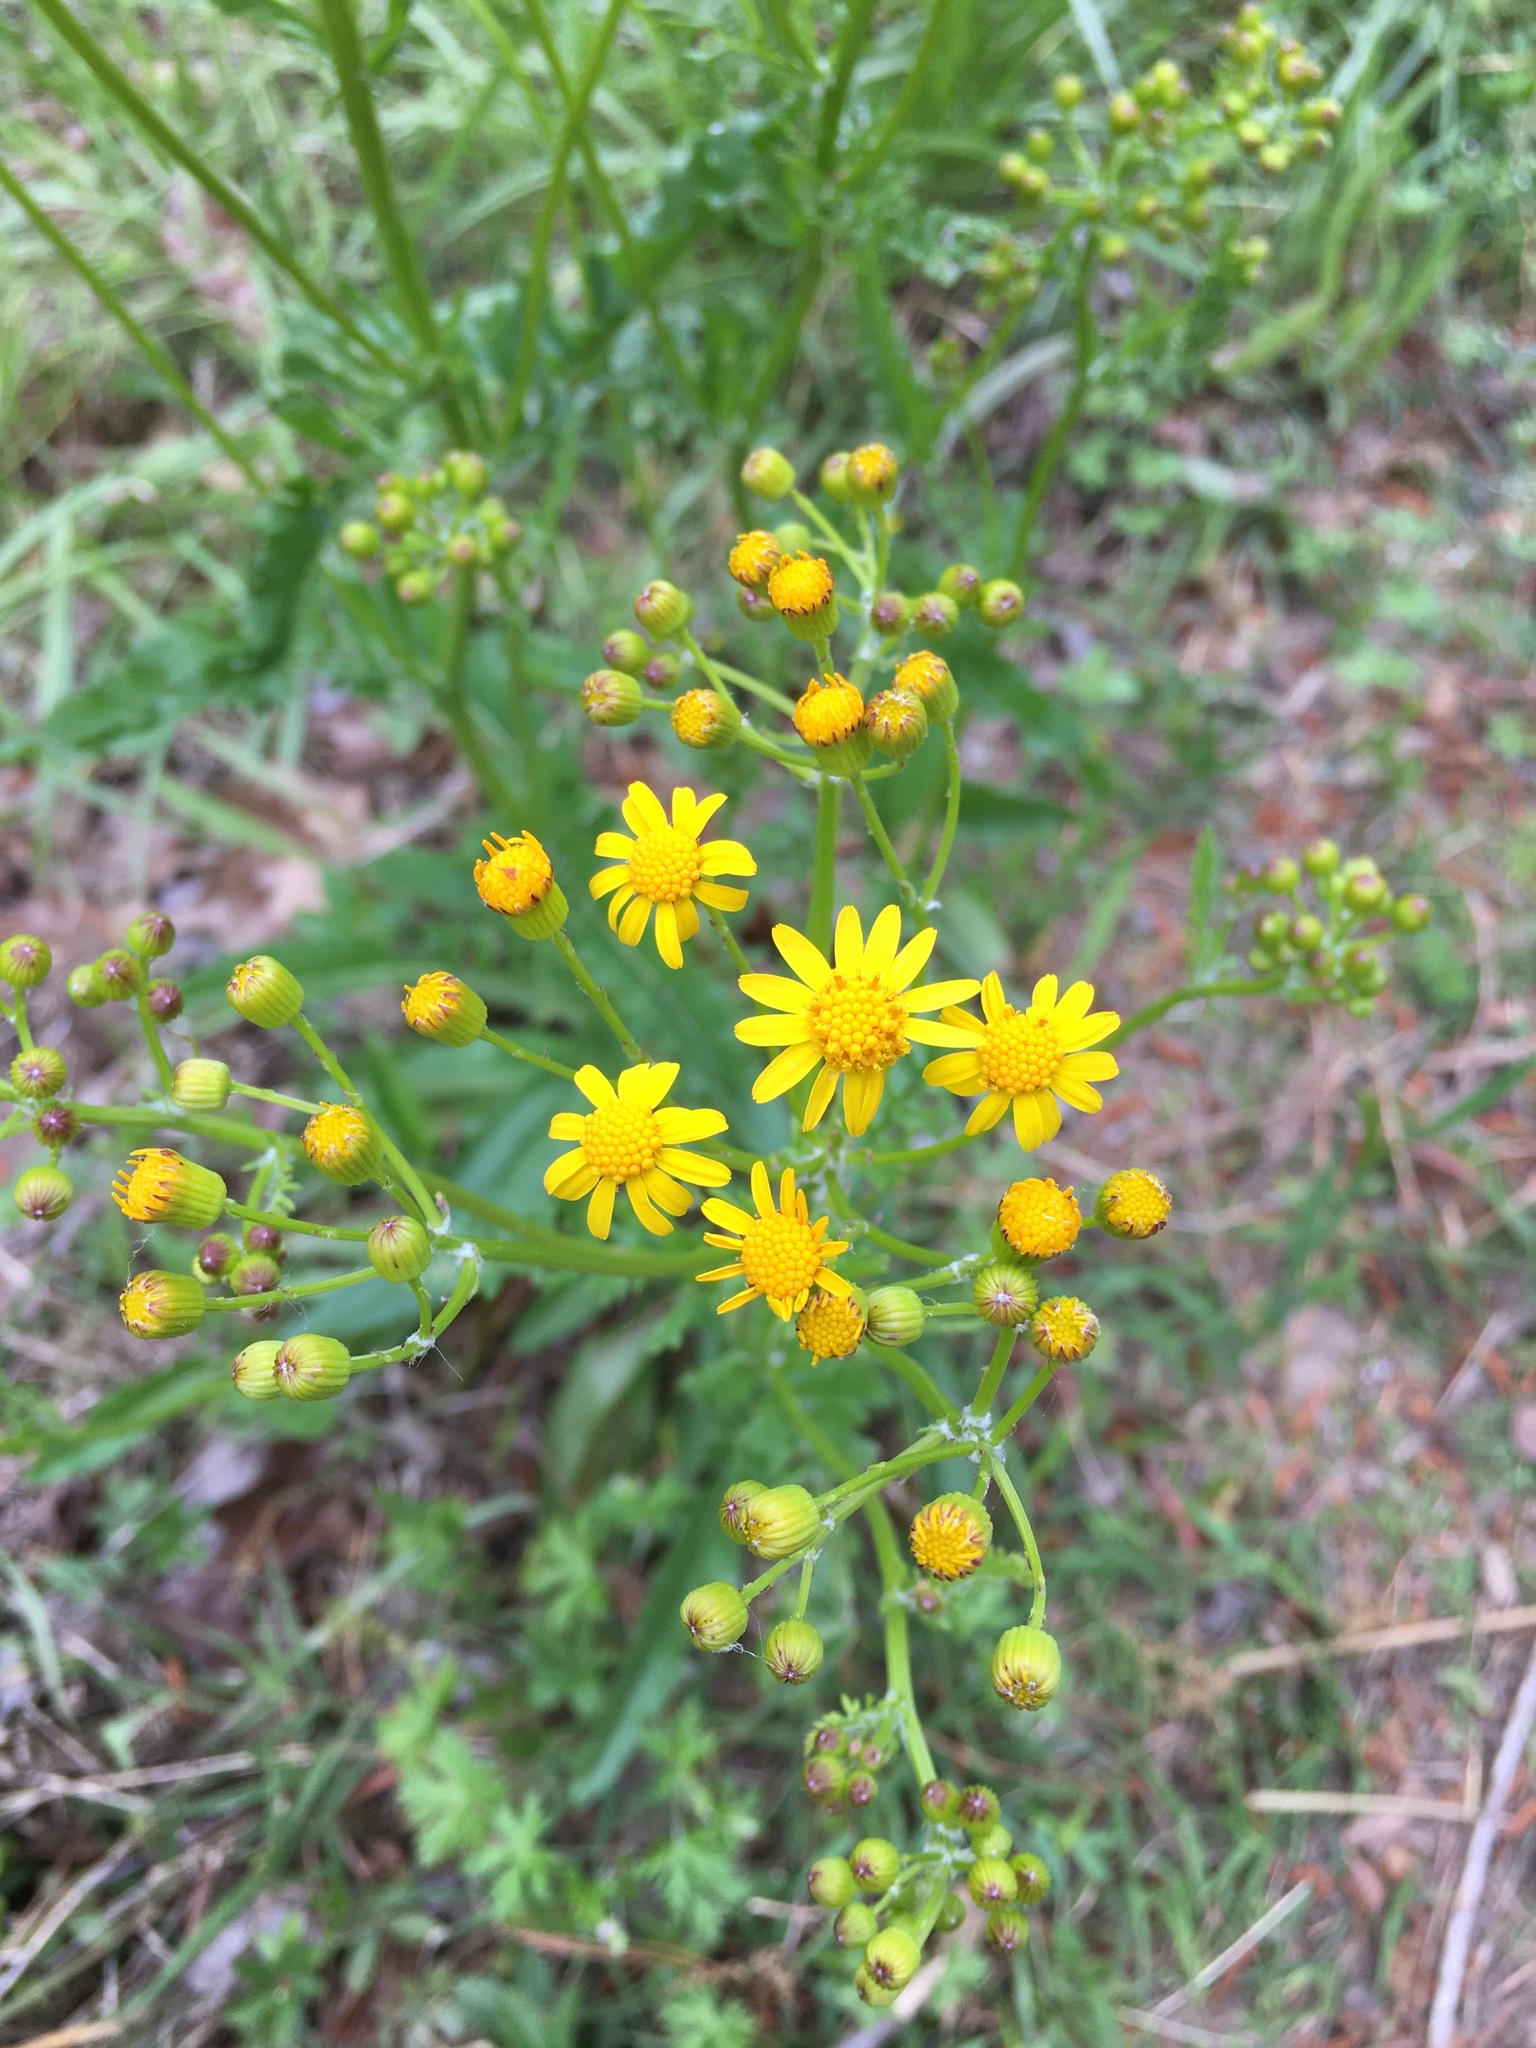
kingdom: Plantae
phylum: Tracheophyta
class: Magnoliopsida
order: Asterales
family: Asteraceae
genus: Packera
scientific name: Packera anonyma
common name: Small ragwort
